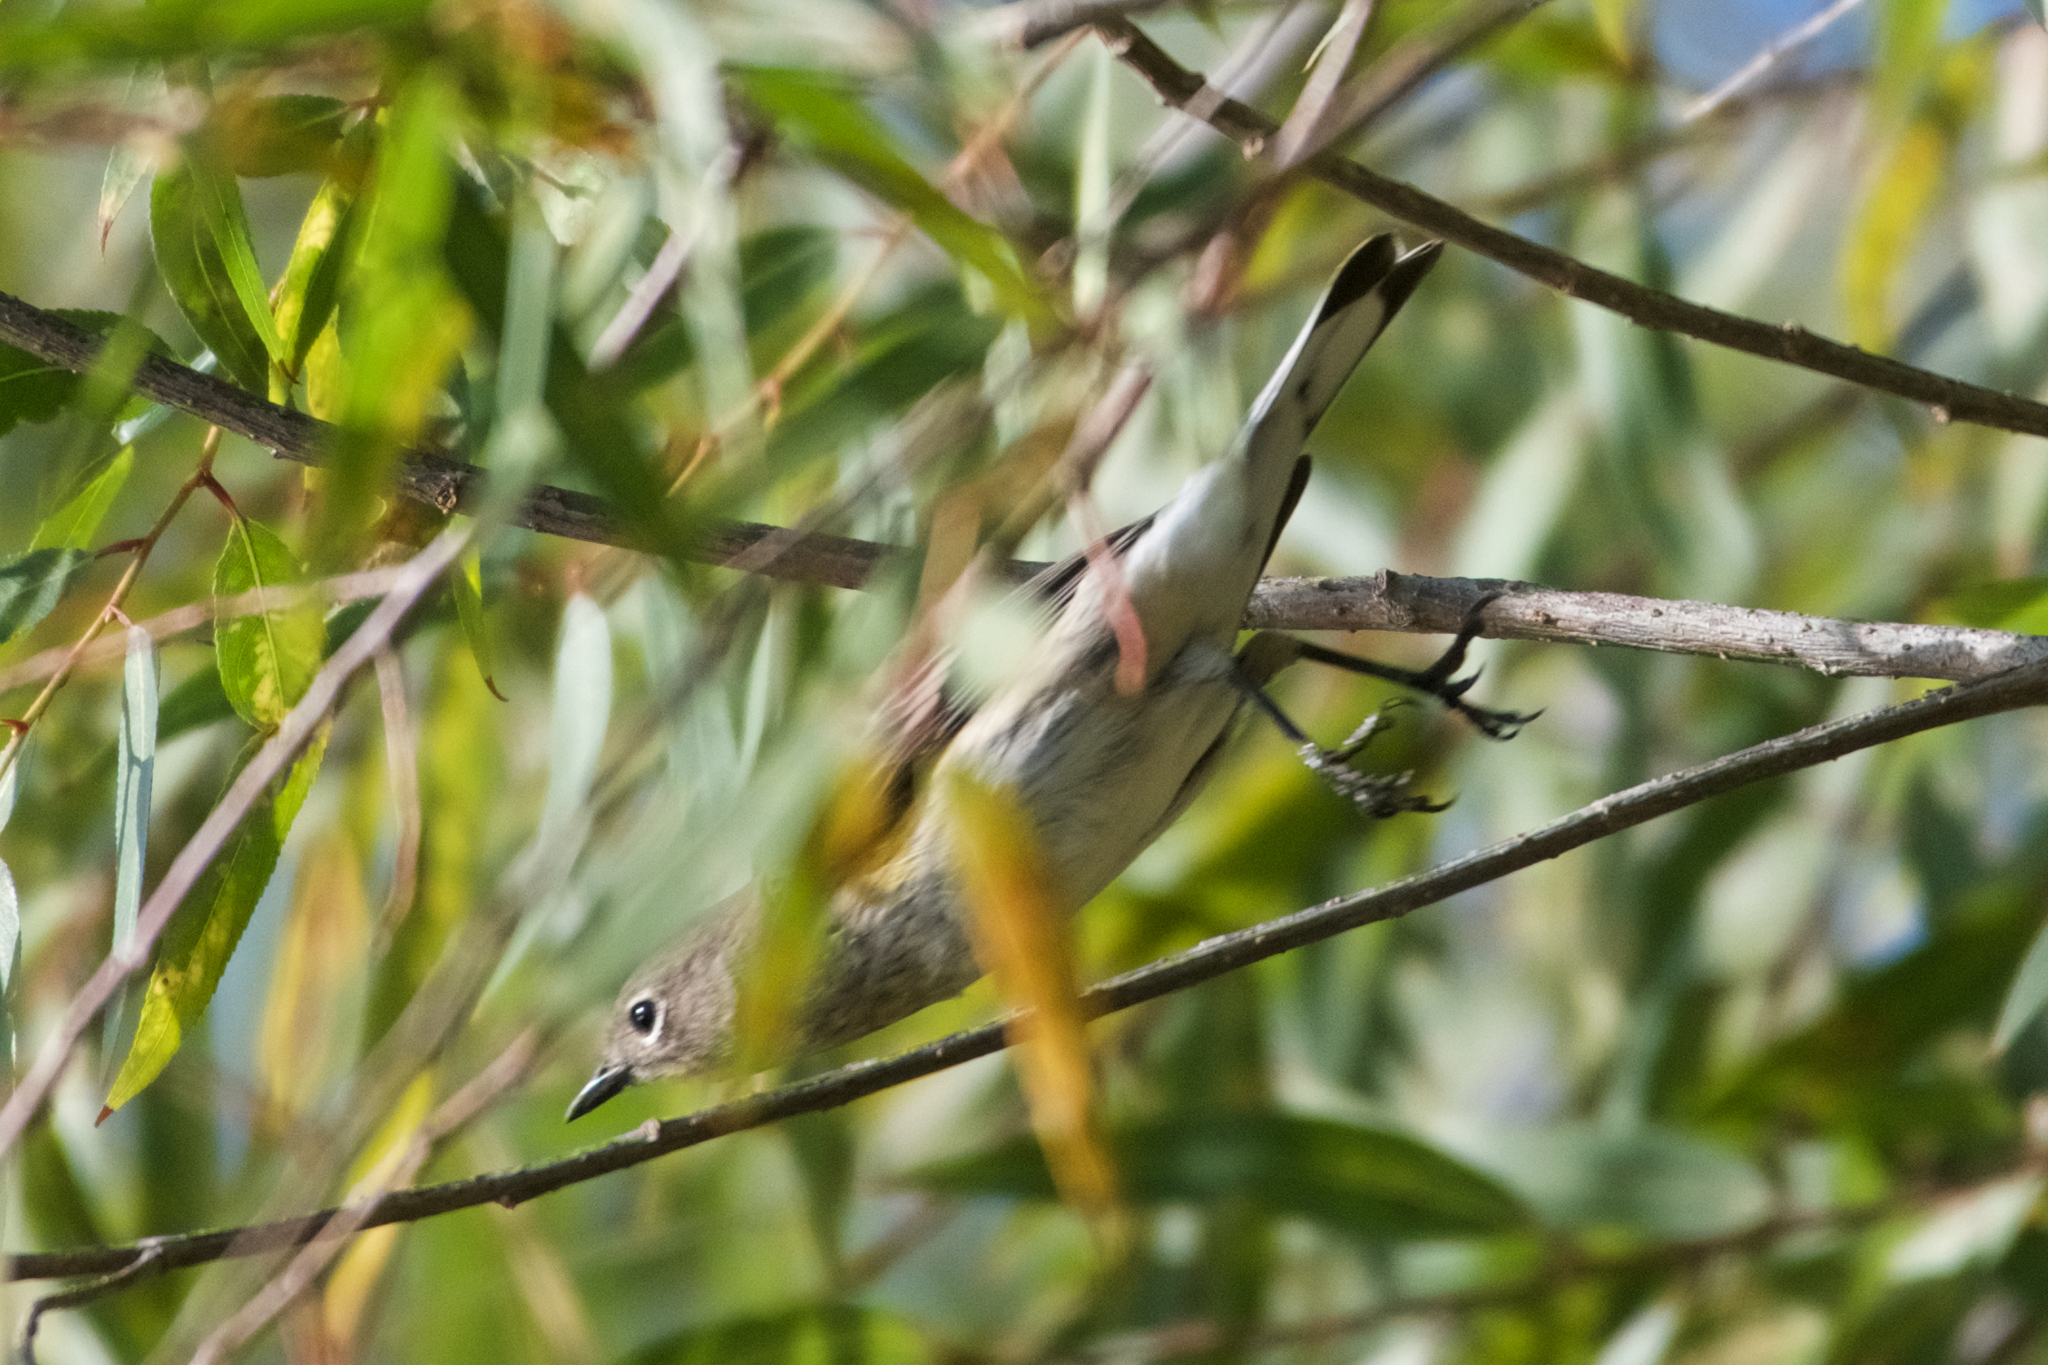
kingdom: Animalia
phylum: Chordata
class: Aves
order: Passeriformes
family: Parulidae
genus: Setophaga
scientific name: Setophaga coronata
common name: Myrtle warbler
